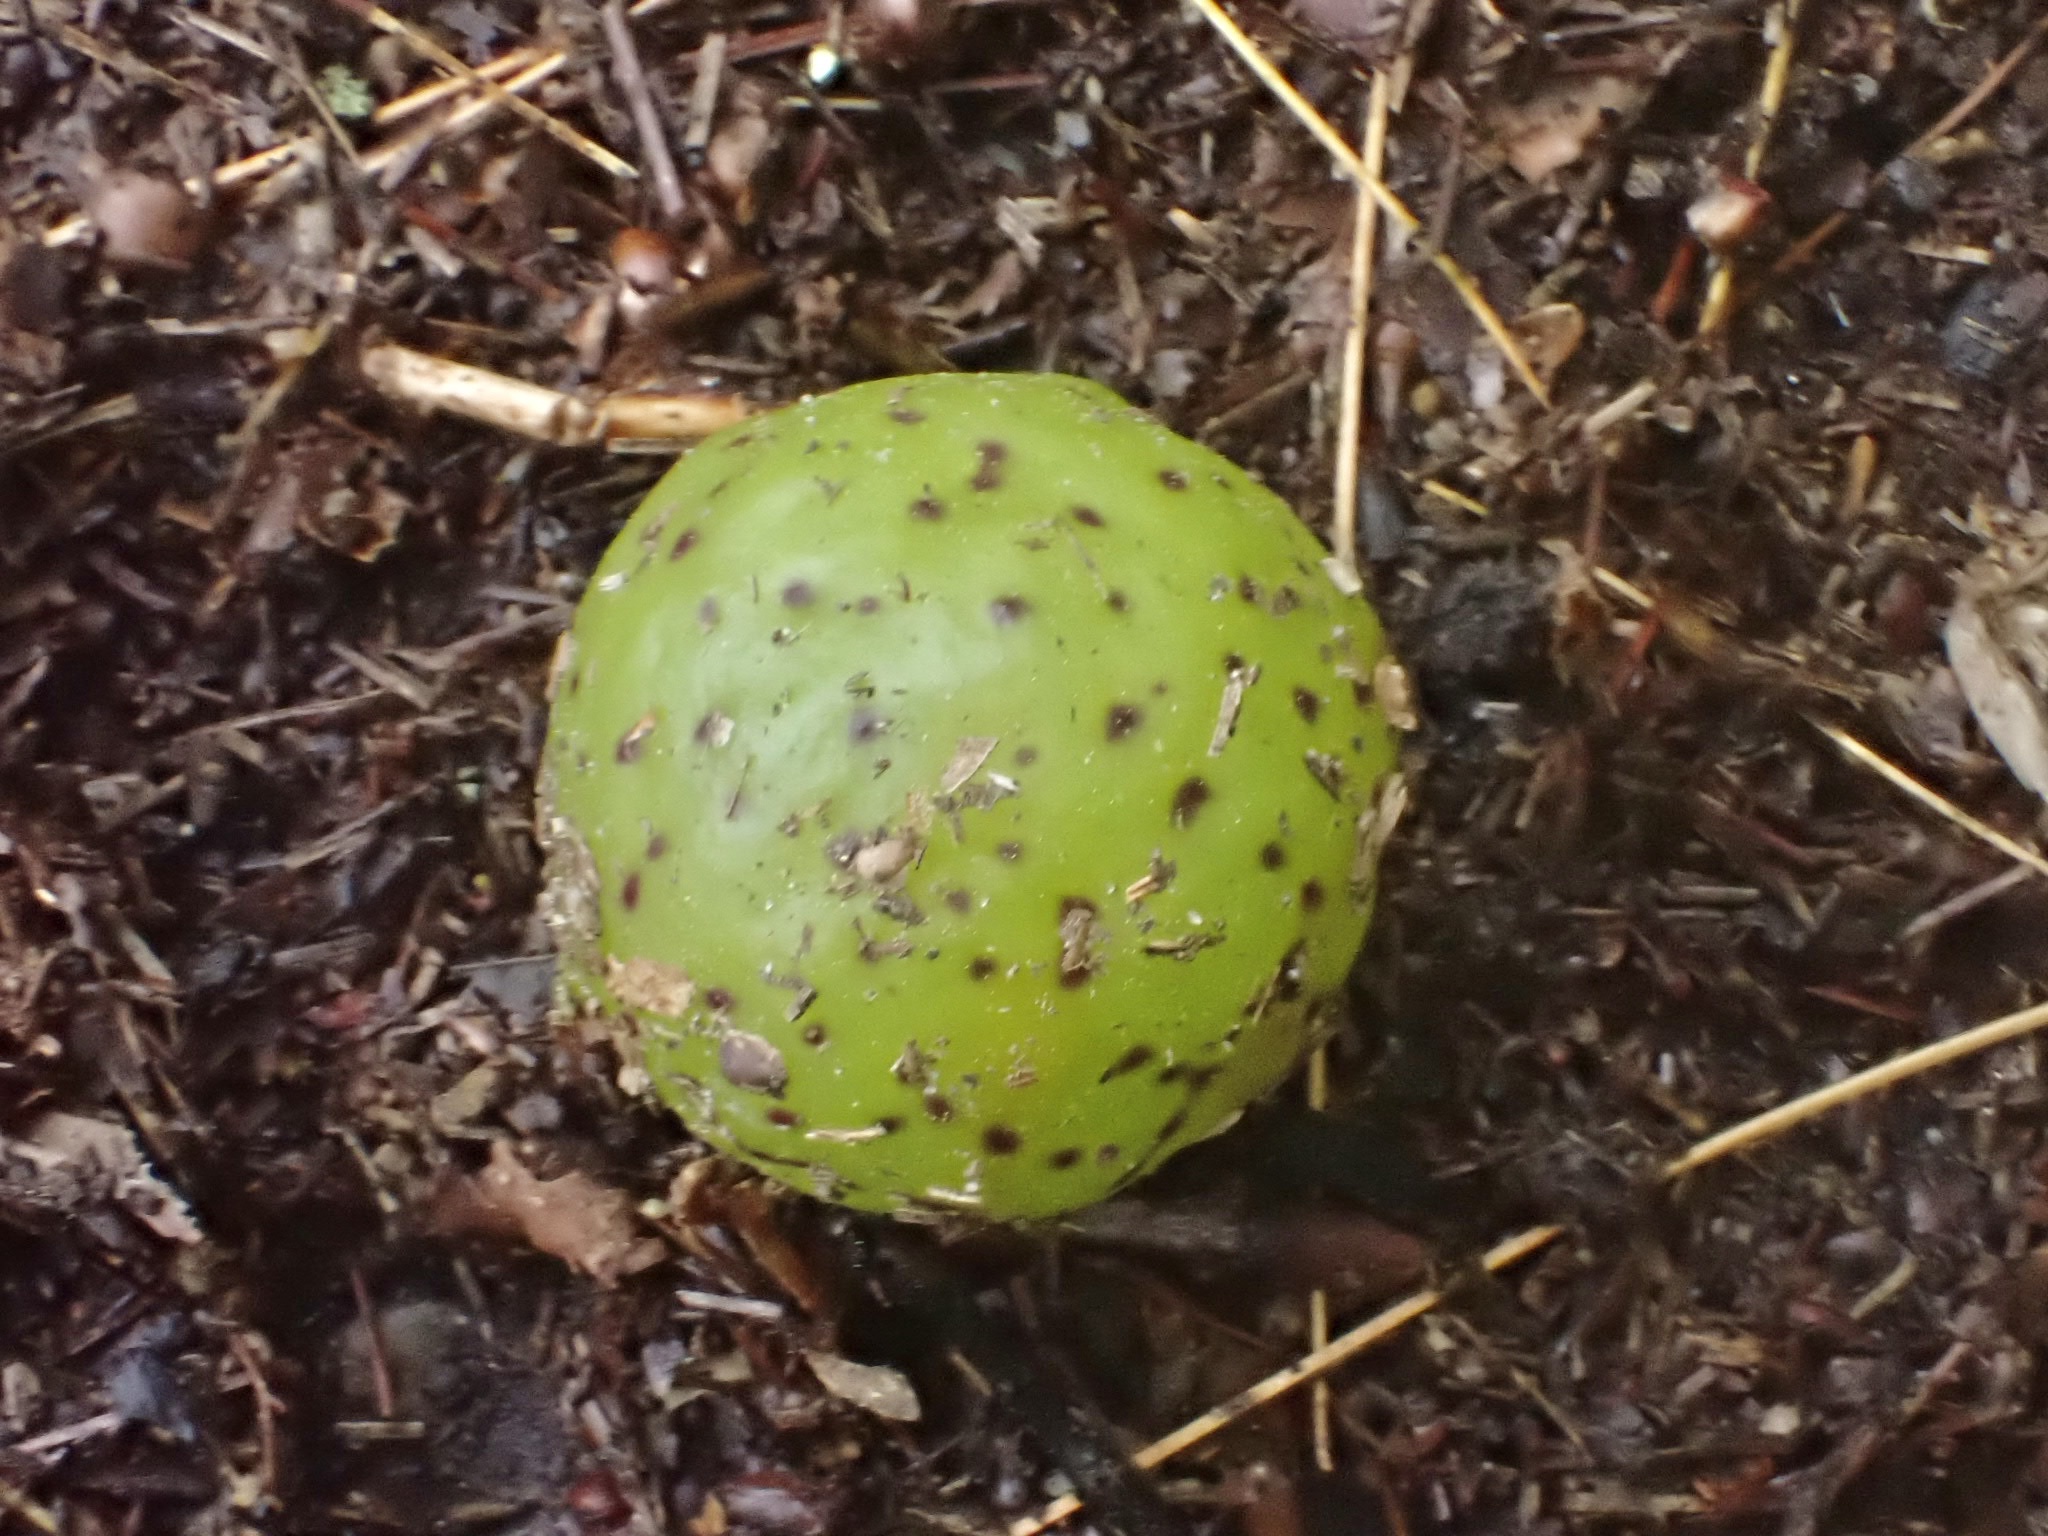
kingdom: Animalia
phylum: Arthropoda
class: Insecta
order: Hymenoptera
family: Cynipidae
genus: Amphibolips
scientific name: Amphibolips
